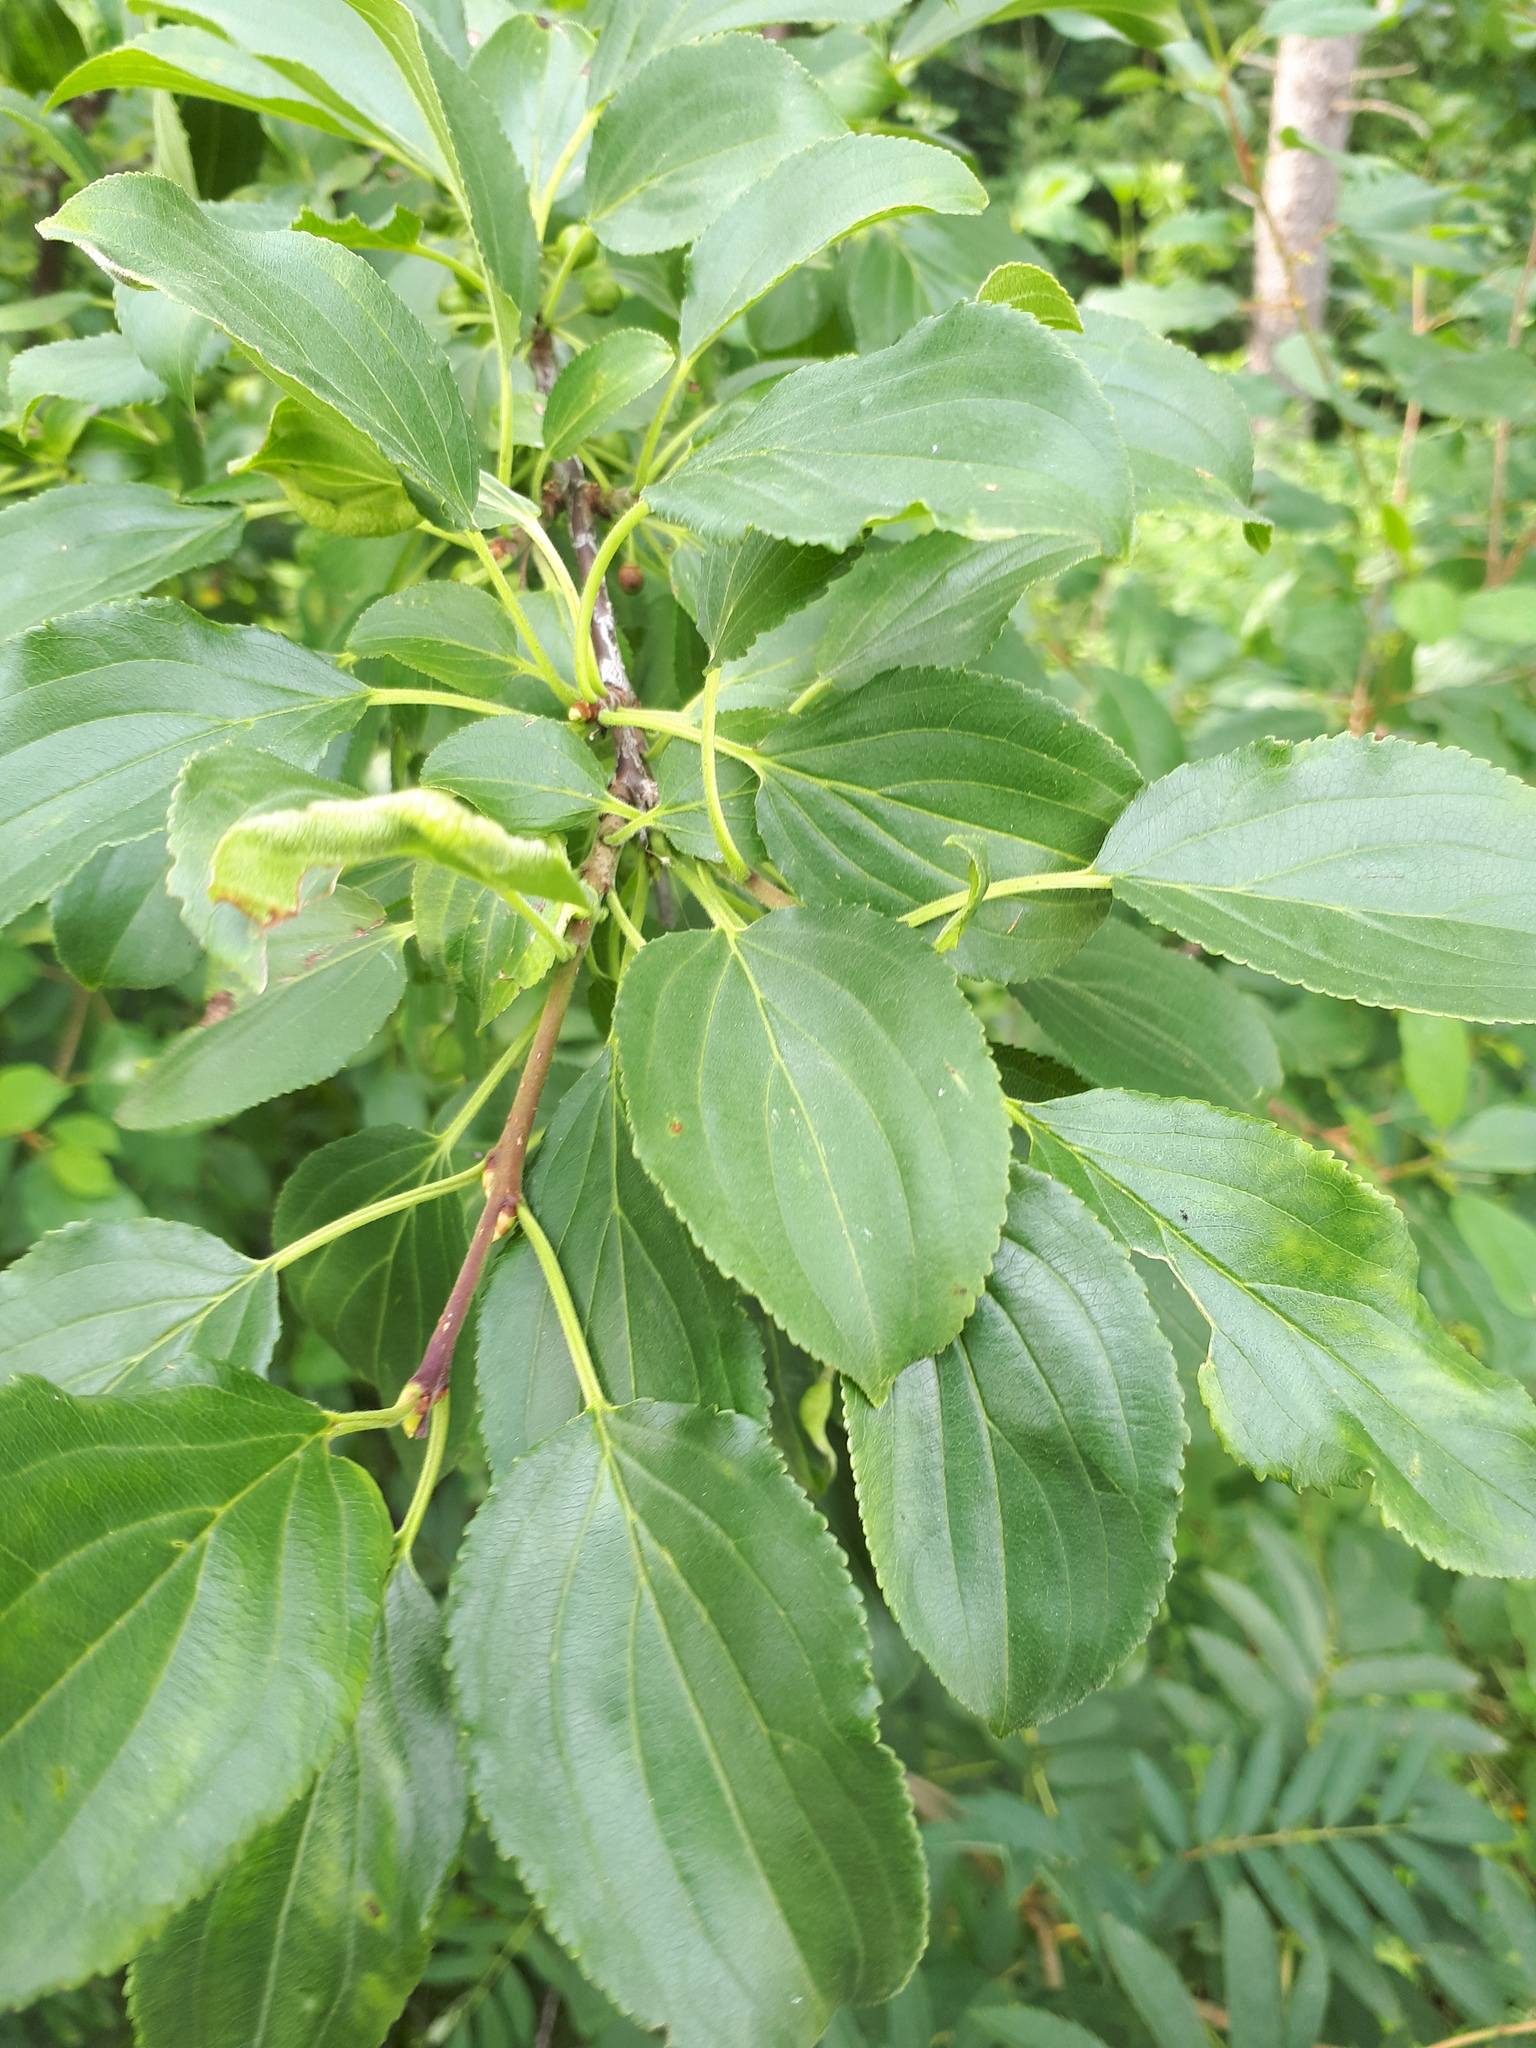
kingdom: Plantae
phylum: Tracheophyta
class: Magnoliopsida
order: Rosales
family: Rhamnaceae
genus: Rhamnus
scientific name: Rhamnus cathartica
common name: Common buckthorn
